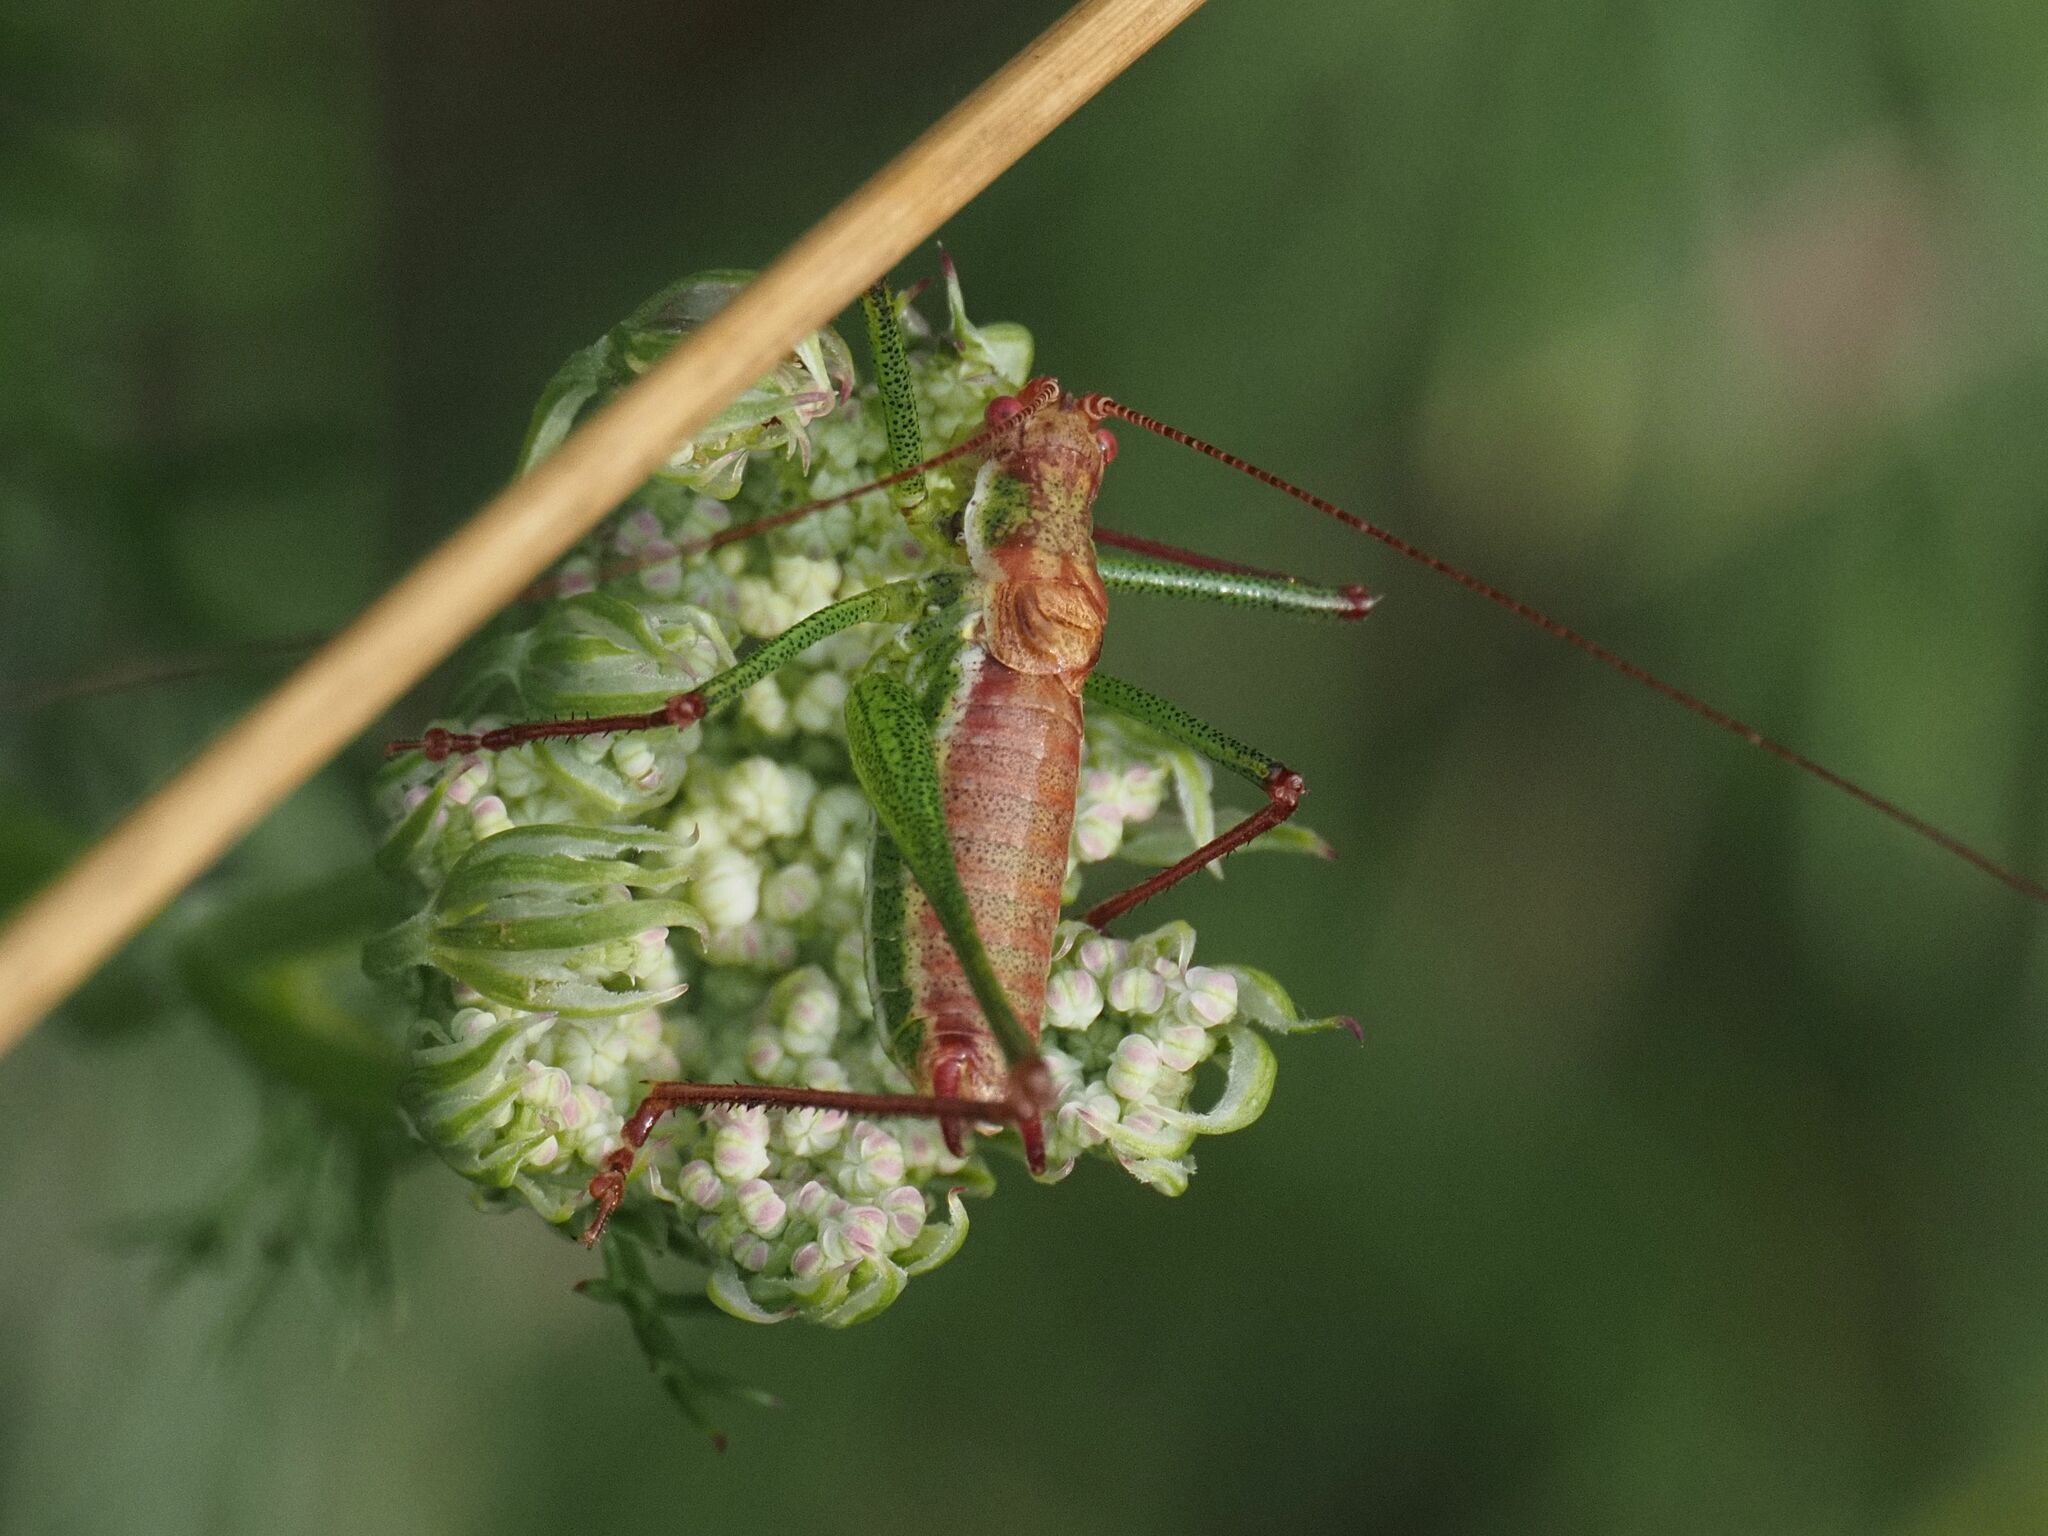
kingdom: Animalia
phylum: Arthropoda
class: Insecta
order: Orthoptera
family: Tettigoniidae
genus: Leptophyes
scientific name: Leptophyes albovittata
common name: Striped bush-cricket
